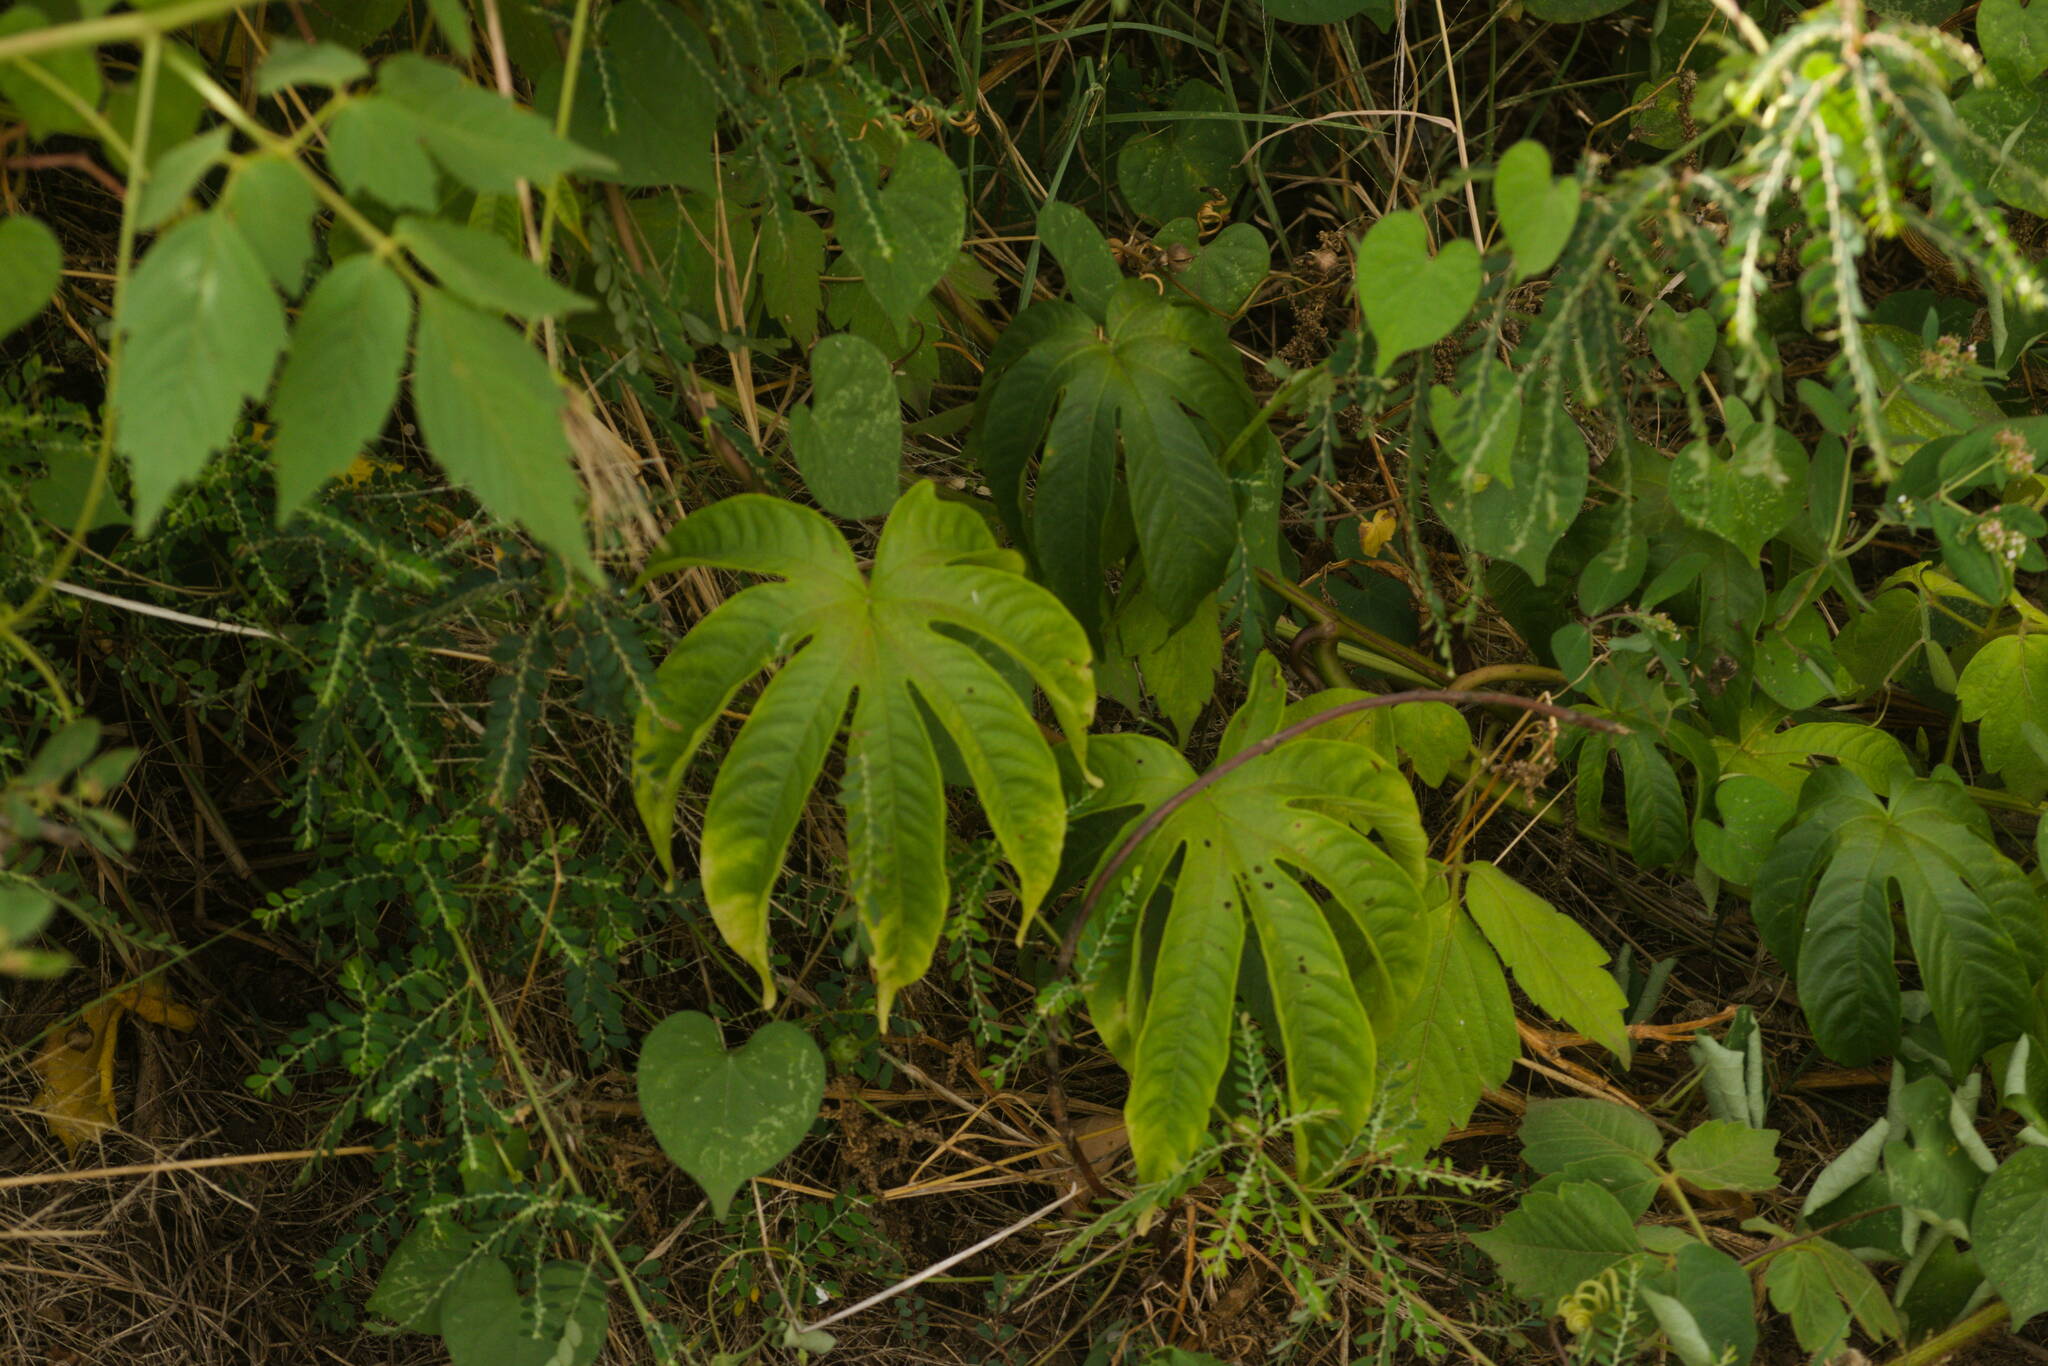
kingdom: Plantae
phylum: Tracheophyta
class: Magnoliopsida
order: Solanales
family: Convolvulaceae
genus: Distimake
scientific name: Distimake tuberosus
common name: Spanish arborvine
